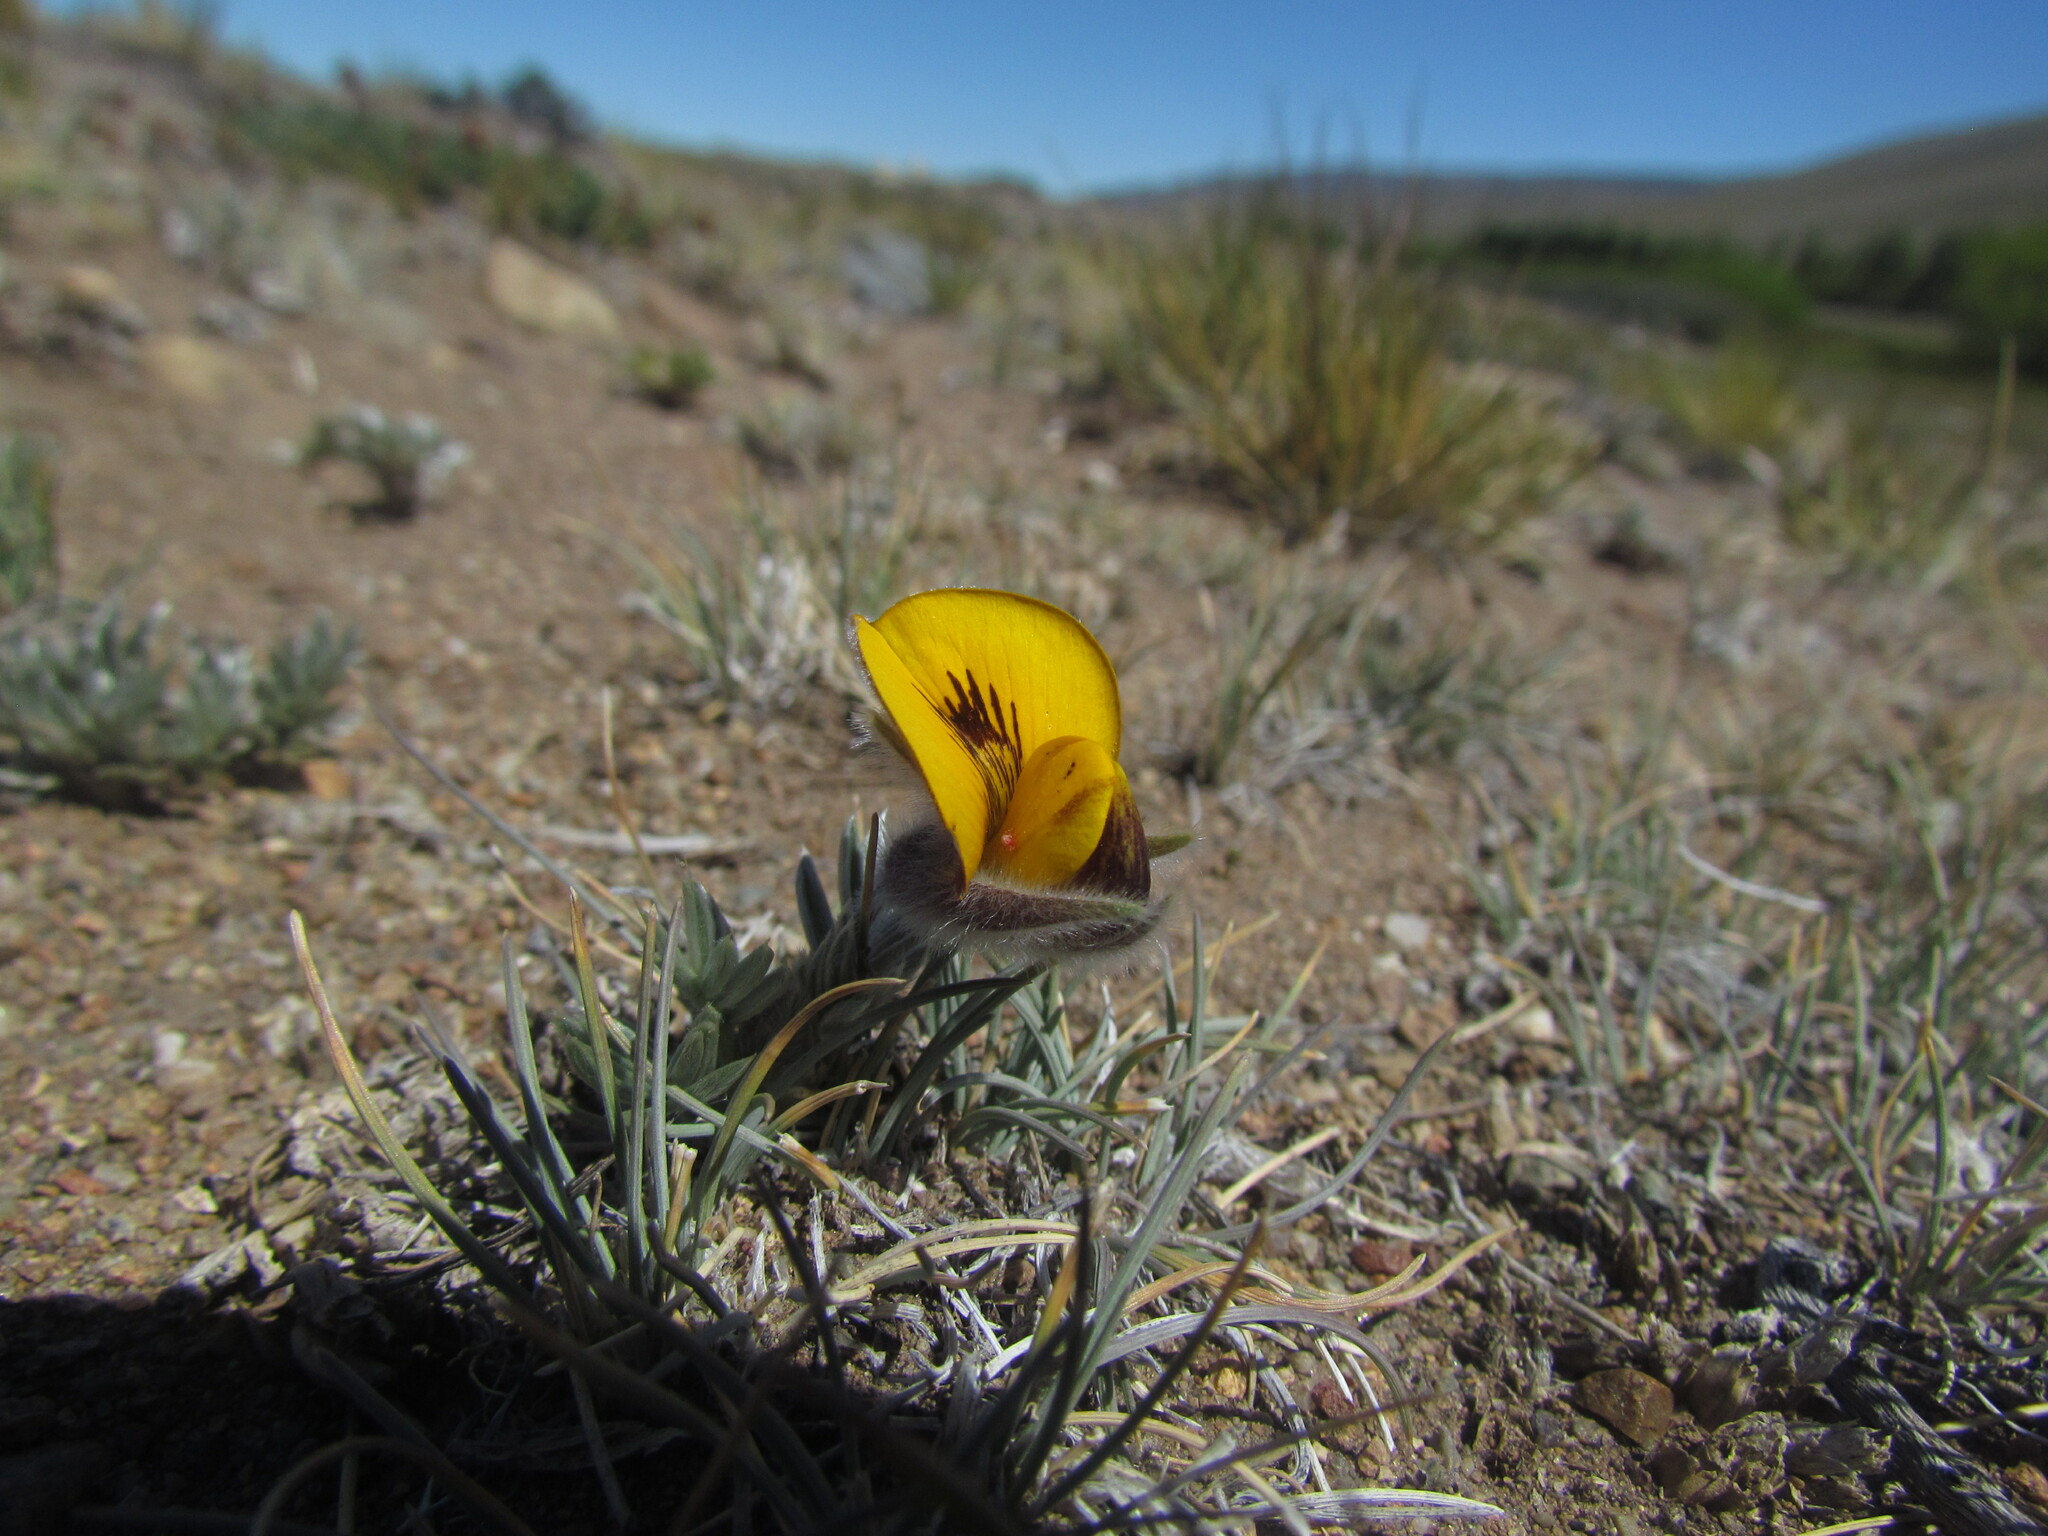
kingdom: Plantae
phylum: Tracheophyta
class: Magnoliopsida
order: Fabales
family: Fabaceae
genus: Adesmia
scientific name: Adesmia villosa
